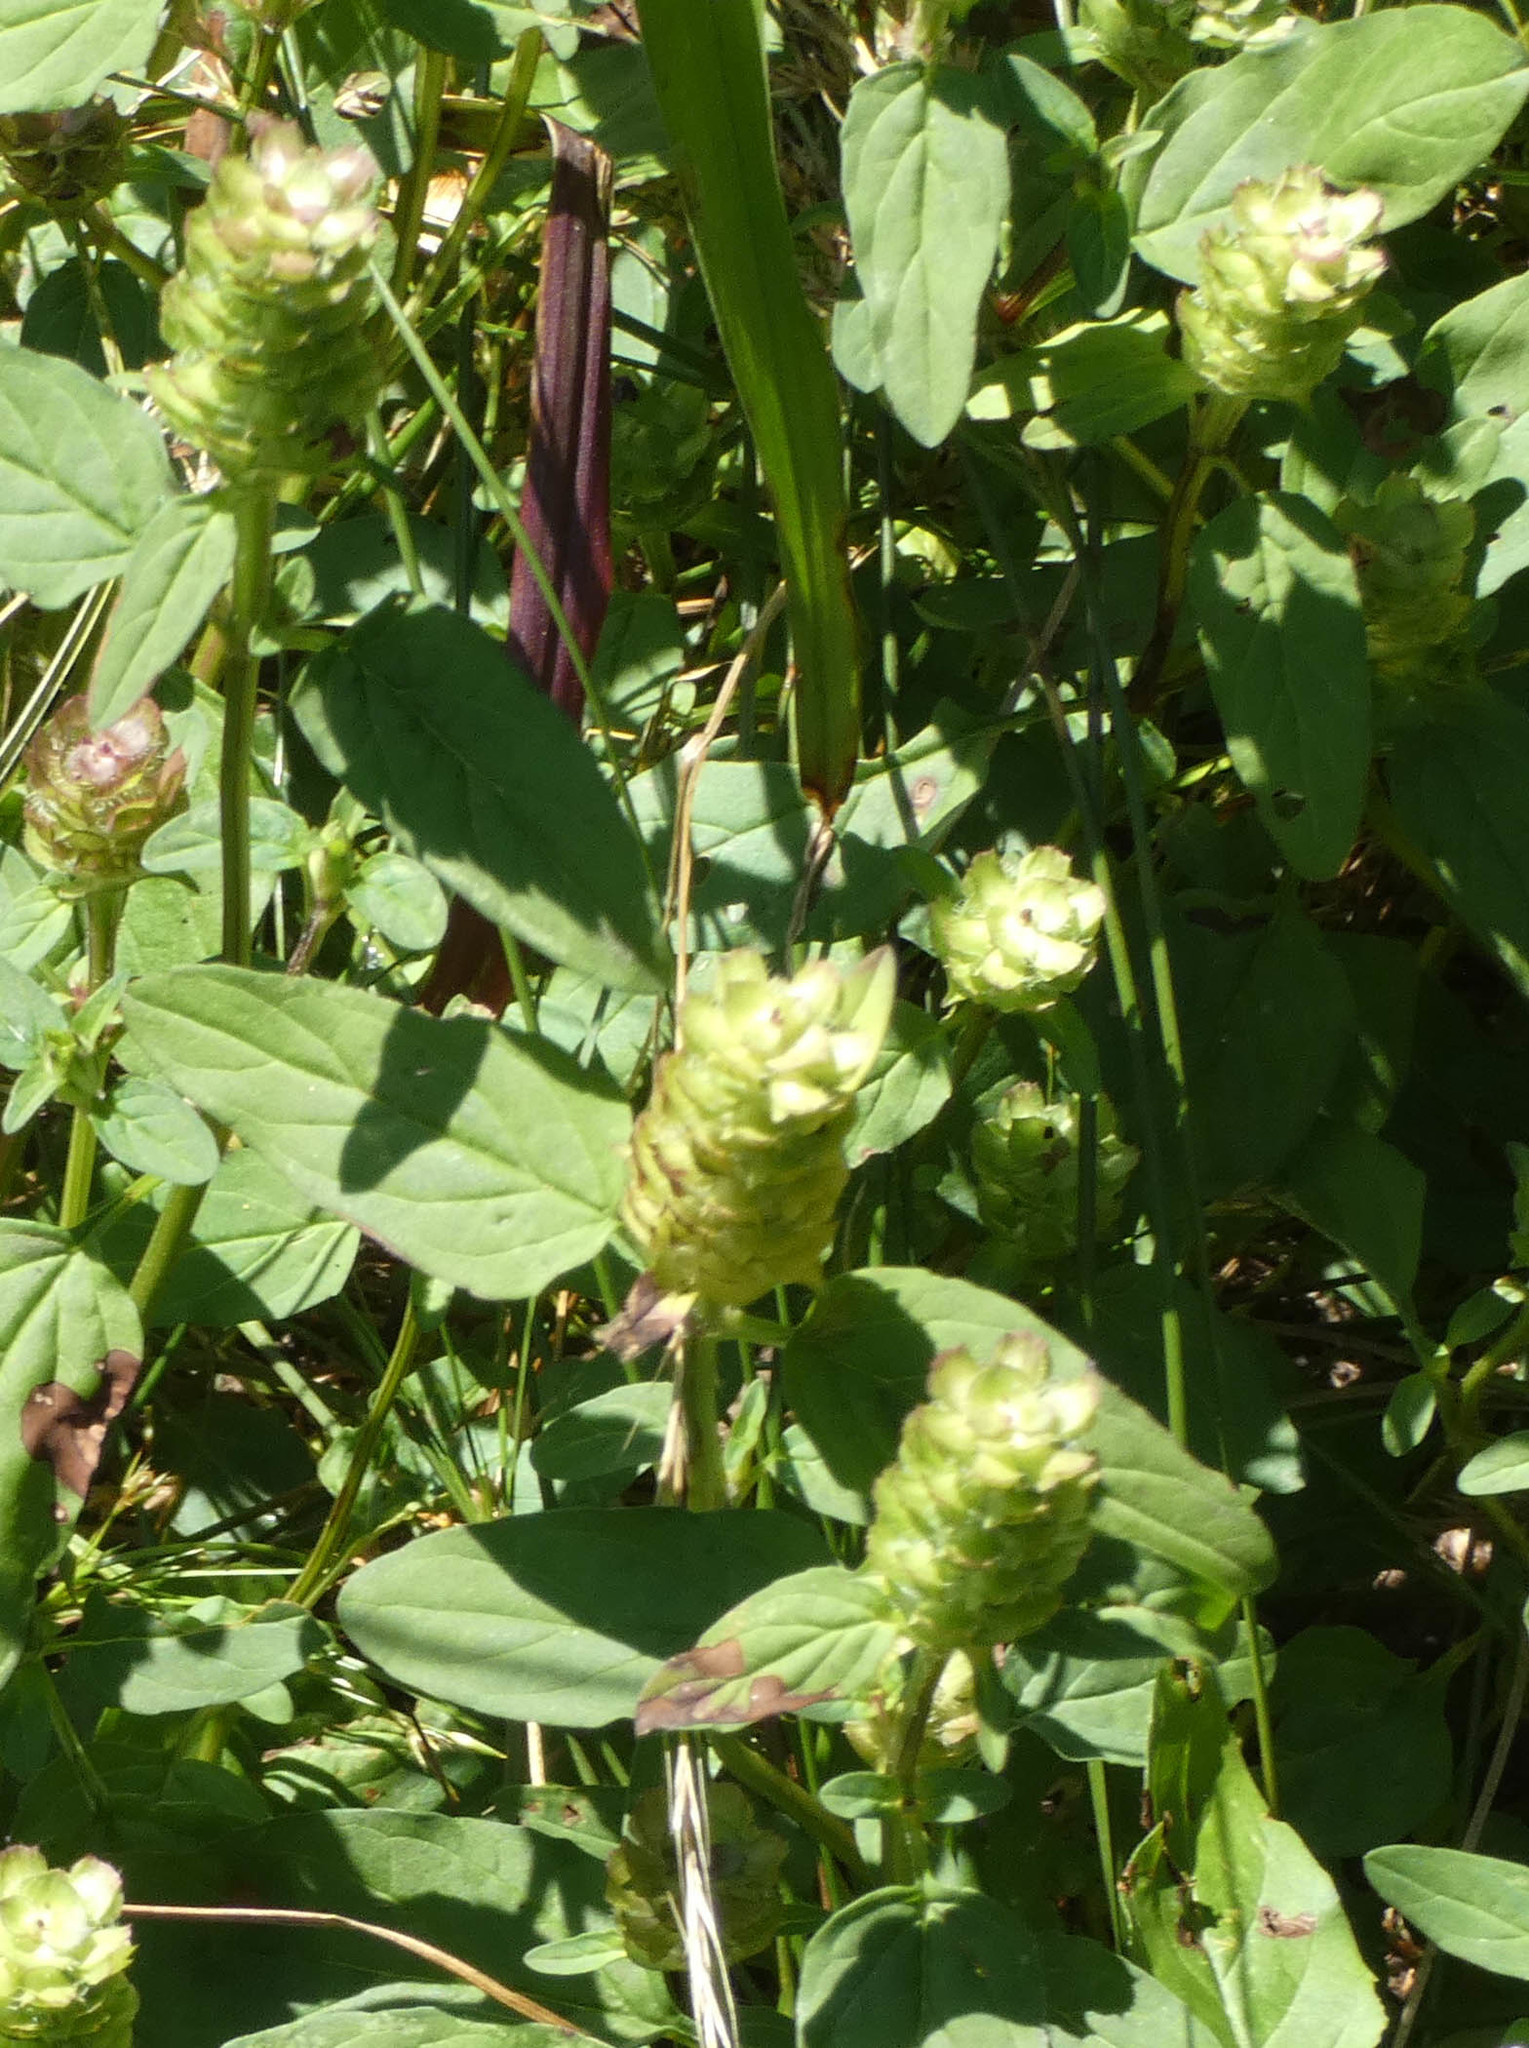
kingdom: Plantae
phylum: Tracheophyta
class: Magnoliopsida
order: Lamiales
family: Lamiaceae
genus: Prunella
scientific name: Prunella vulgaris
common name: Heal-all
